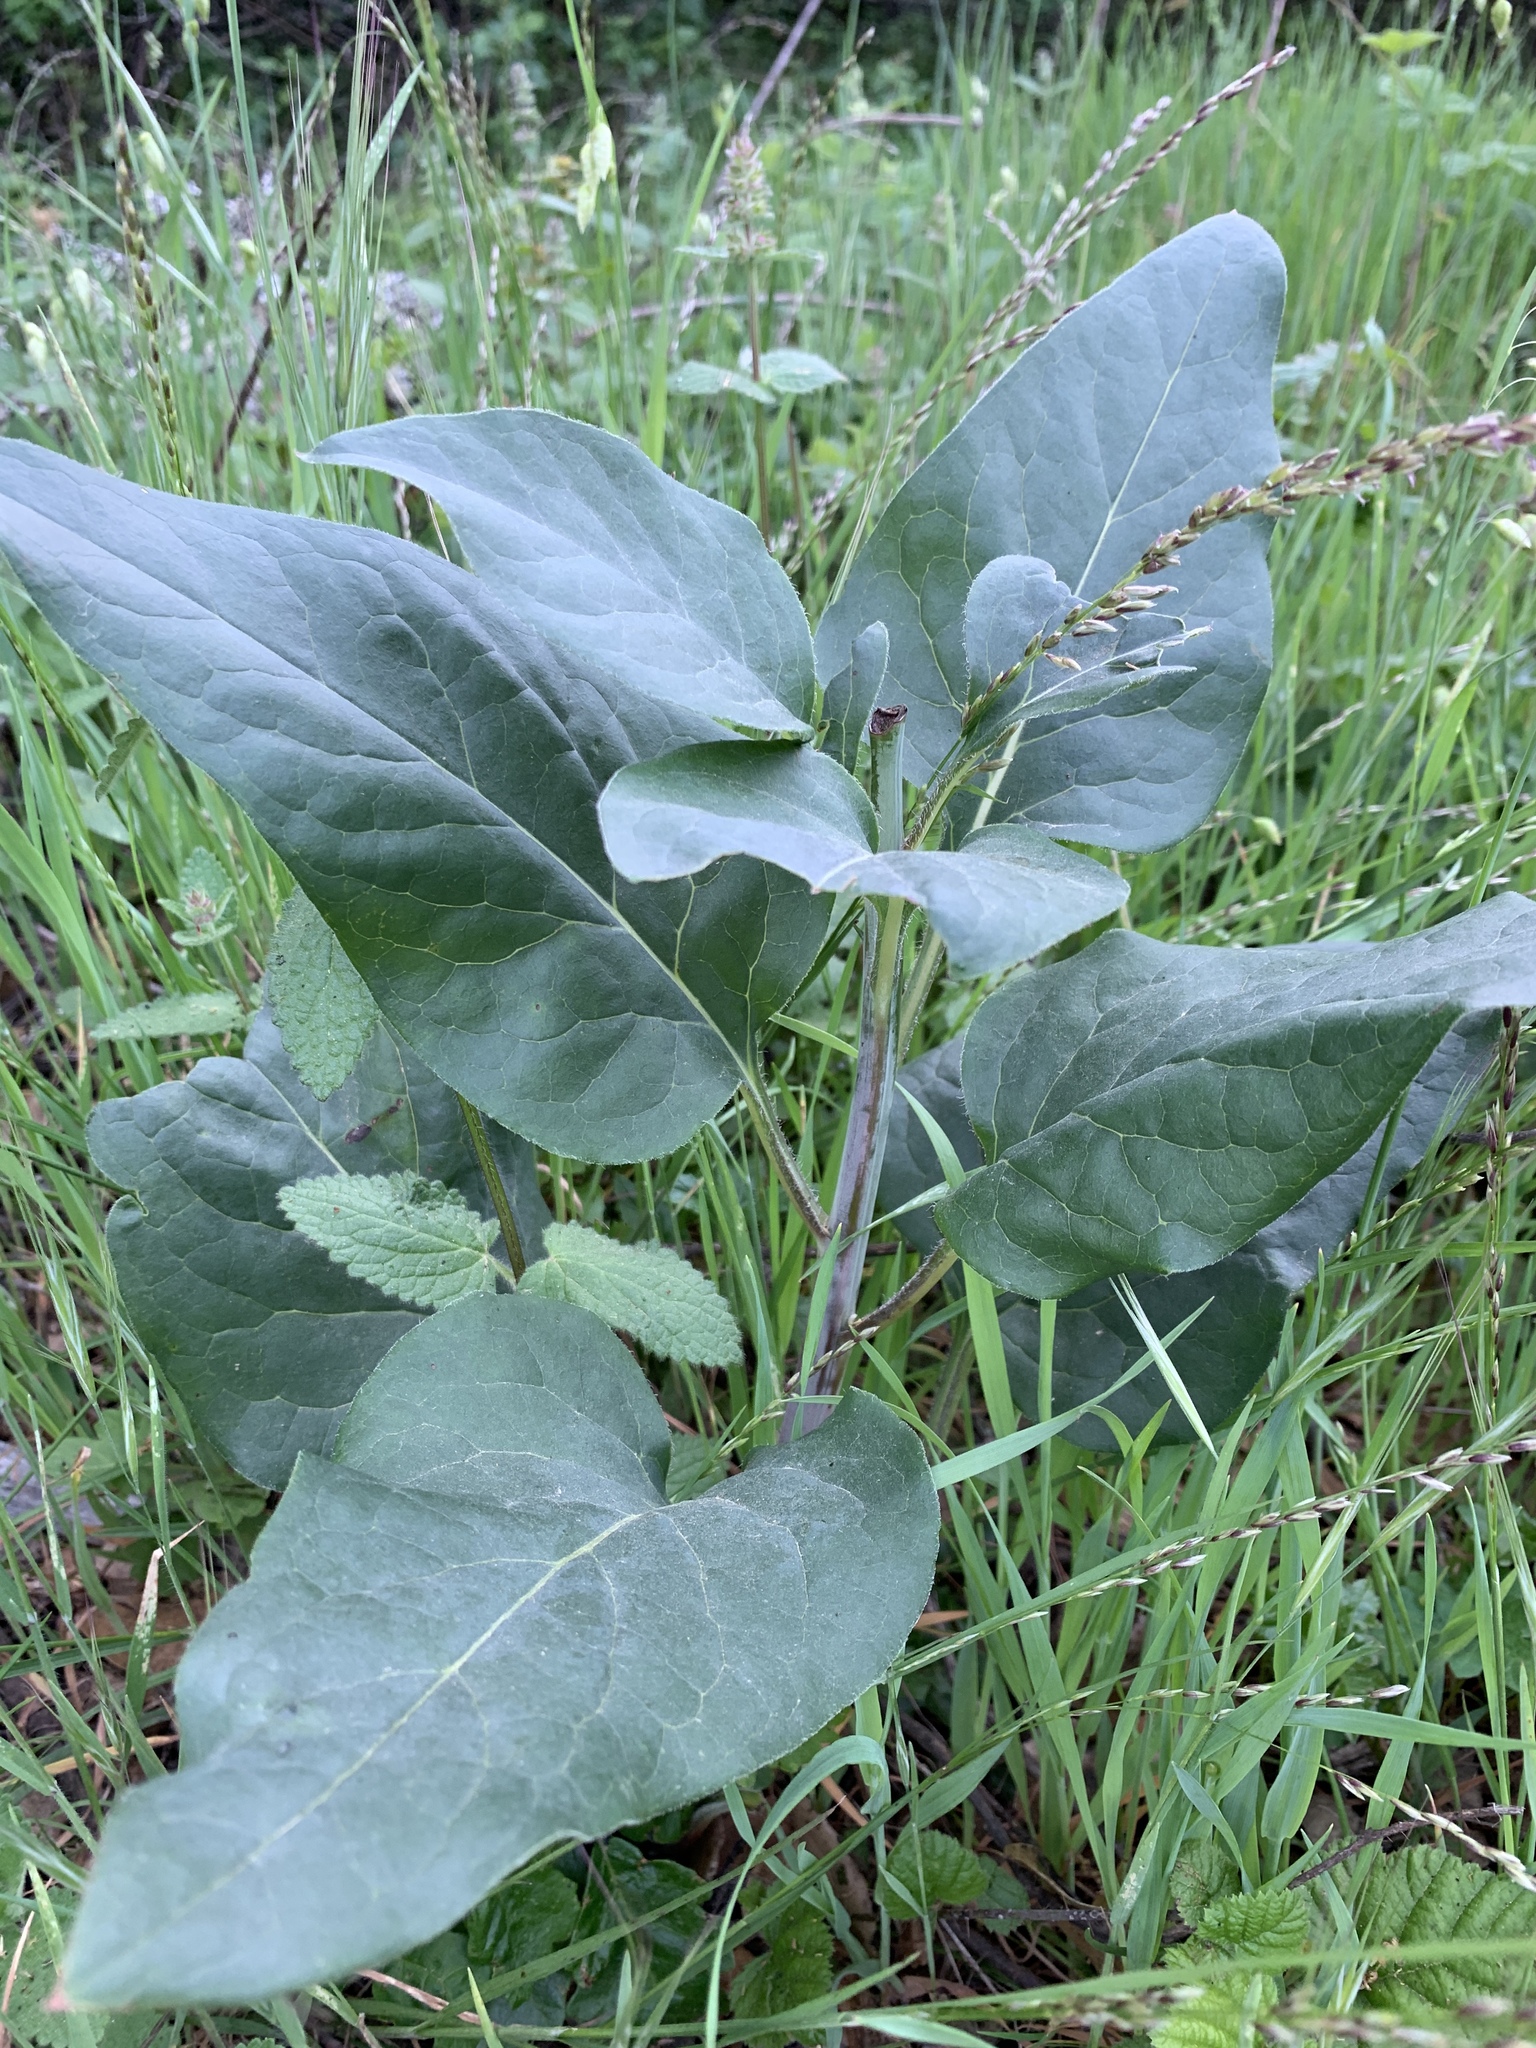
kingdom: Plantae
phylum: Tracheophyta
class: Magnoliopsida
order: Boraginales
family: Boraginaceae
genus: Adelinia
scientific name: Adelinia grande
